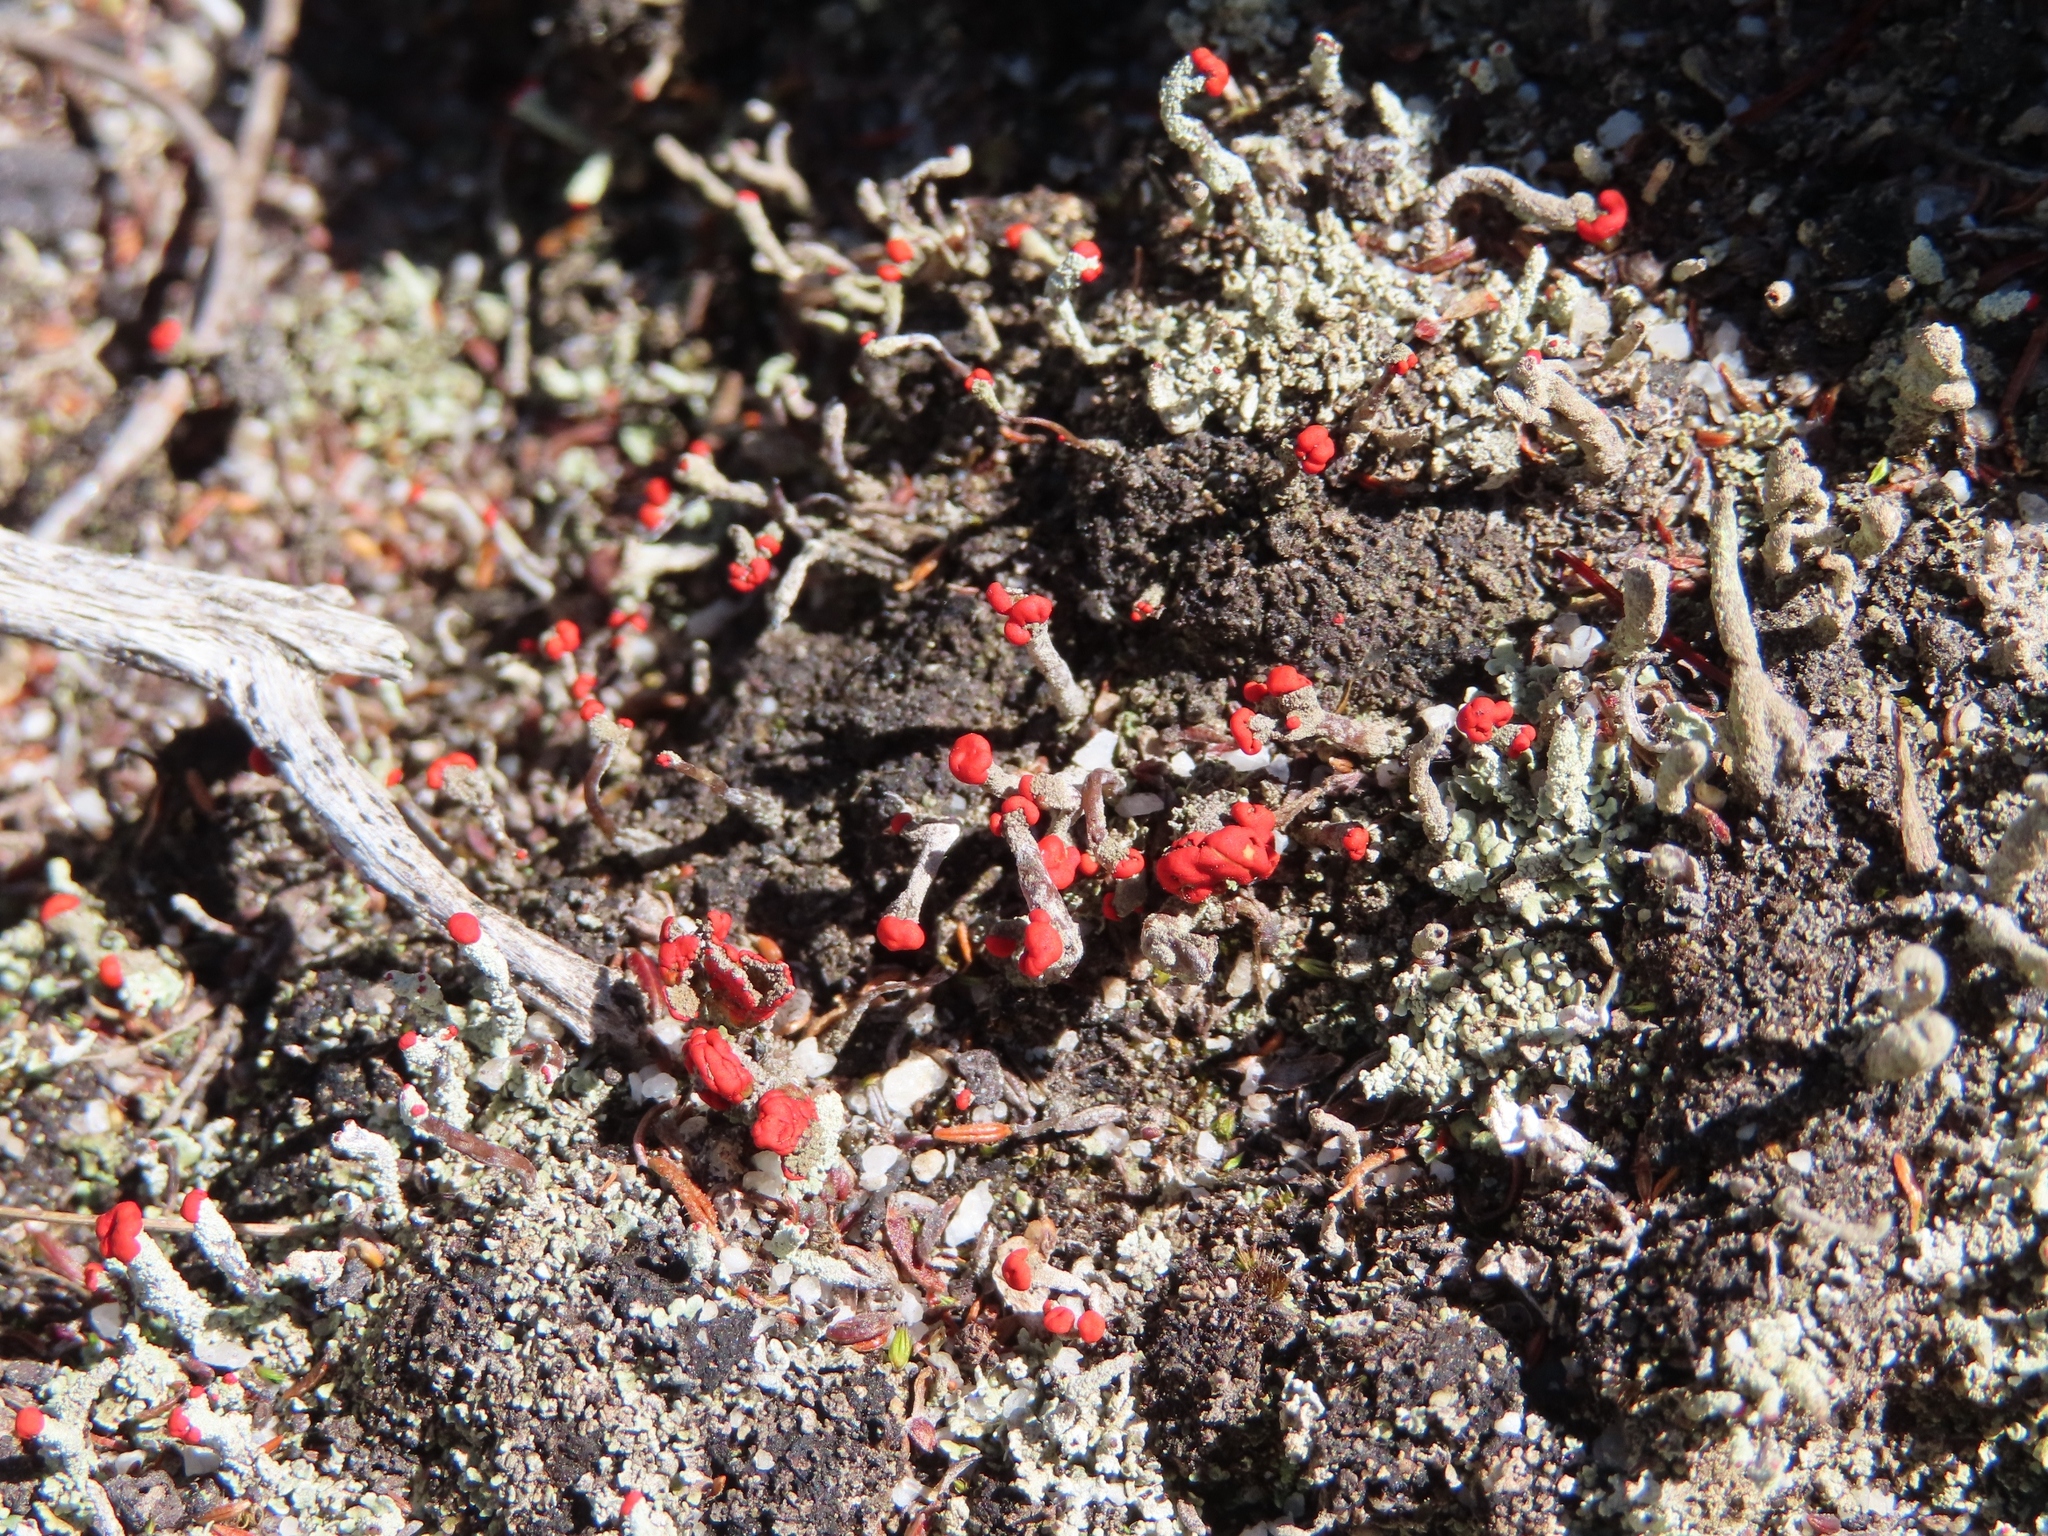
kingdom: Fungi
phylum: Ascomycota
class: Lecanoromycetes
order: Lecanorales
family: Cladoniaceae
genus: Cladonia
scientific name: Cladonia floerkeana
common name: Gritty british soldiers lichen
